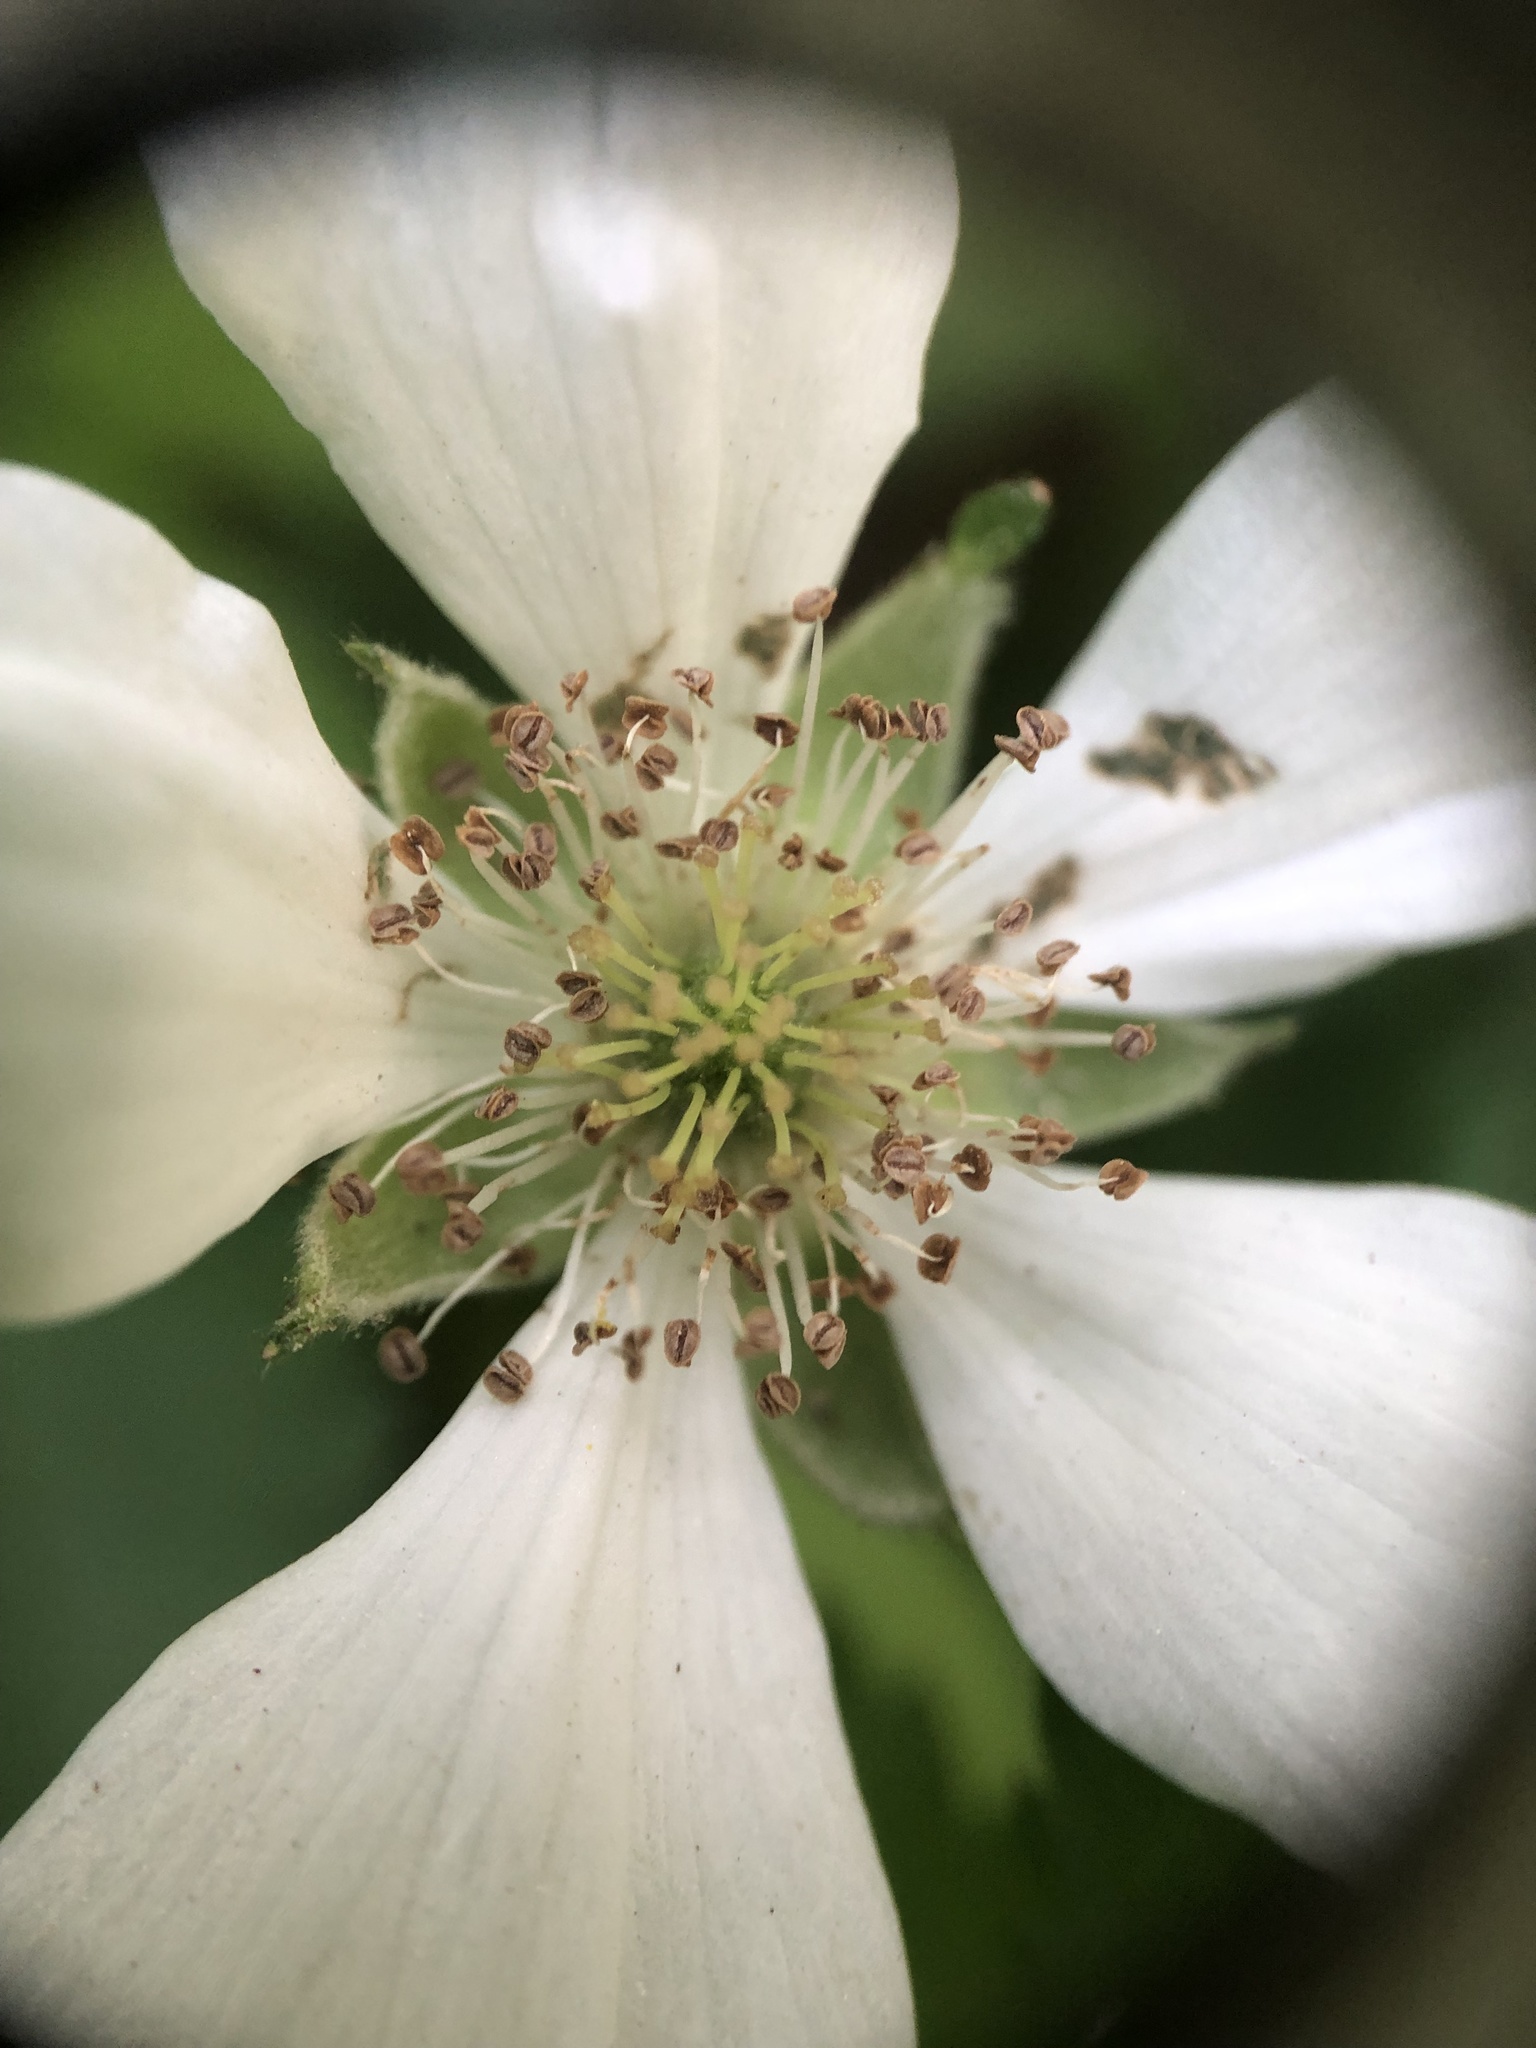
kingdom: Plantae
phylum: Tracheophyta
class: Magnoliopsida
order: Rosales
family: Rosaceae
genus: Rubus
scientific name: Rubus flagellaris
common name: American dewberry
